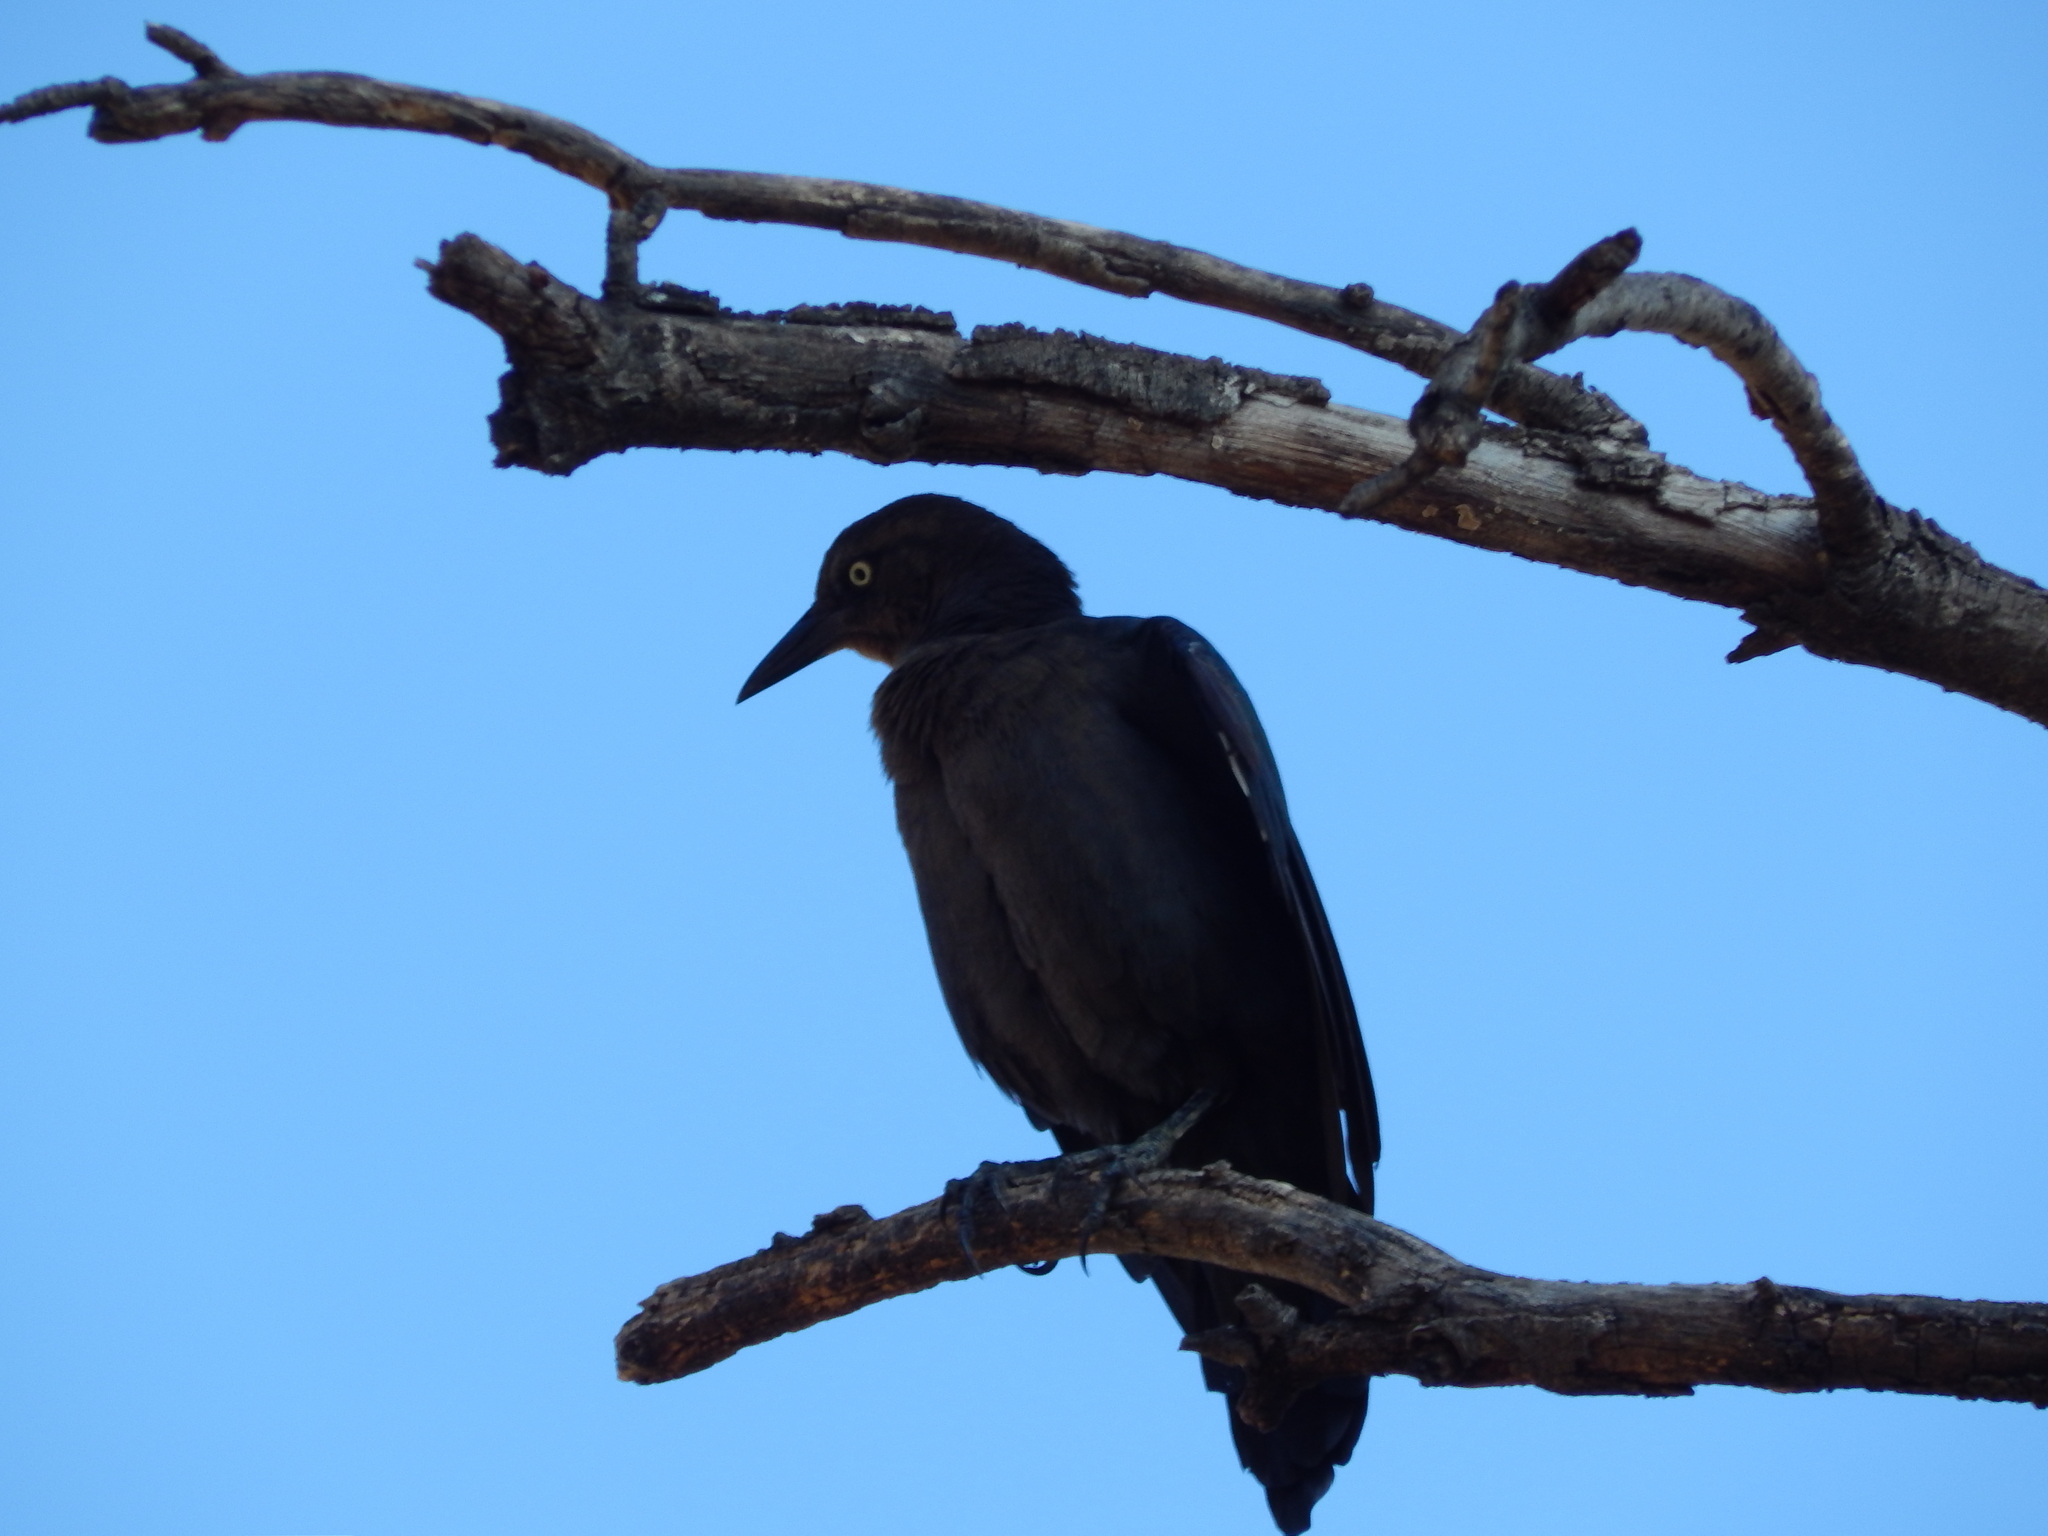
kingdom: Animalia
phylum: Chordata
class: Aves
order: Passeriformes
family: Icteridae
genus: Quiscalus
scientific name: Quiscalus mexicanus
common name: Great-tailed grackle
